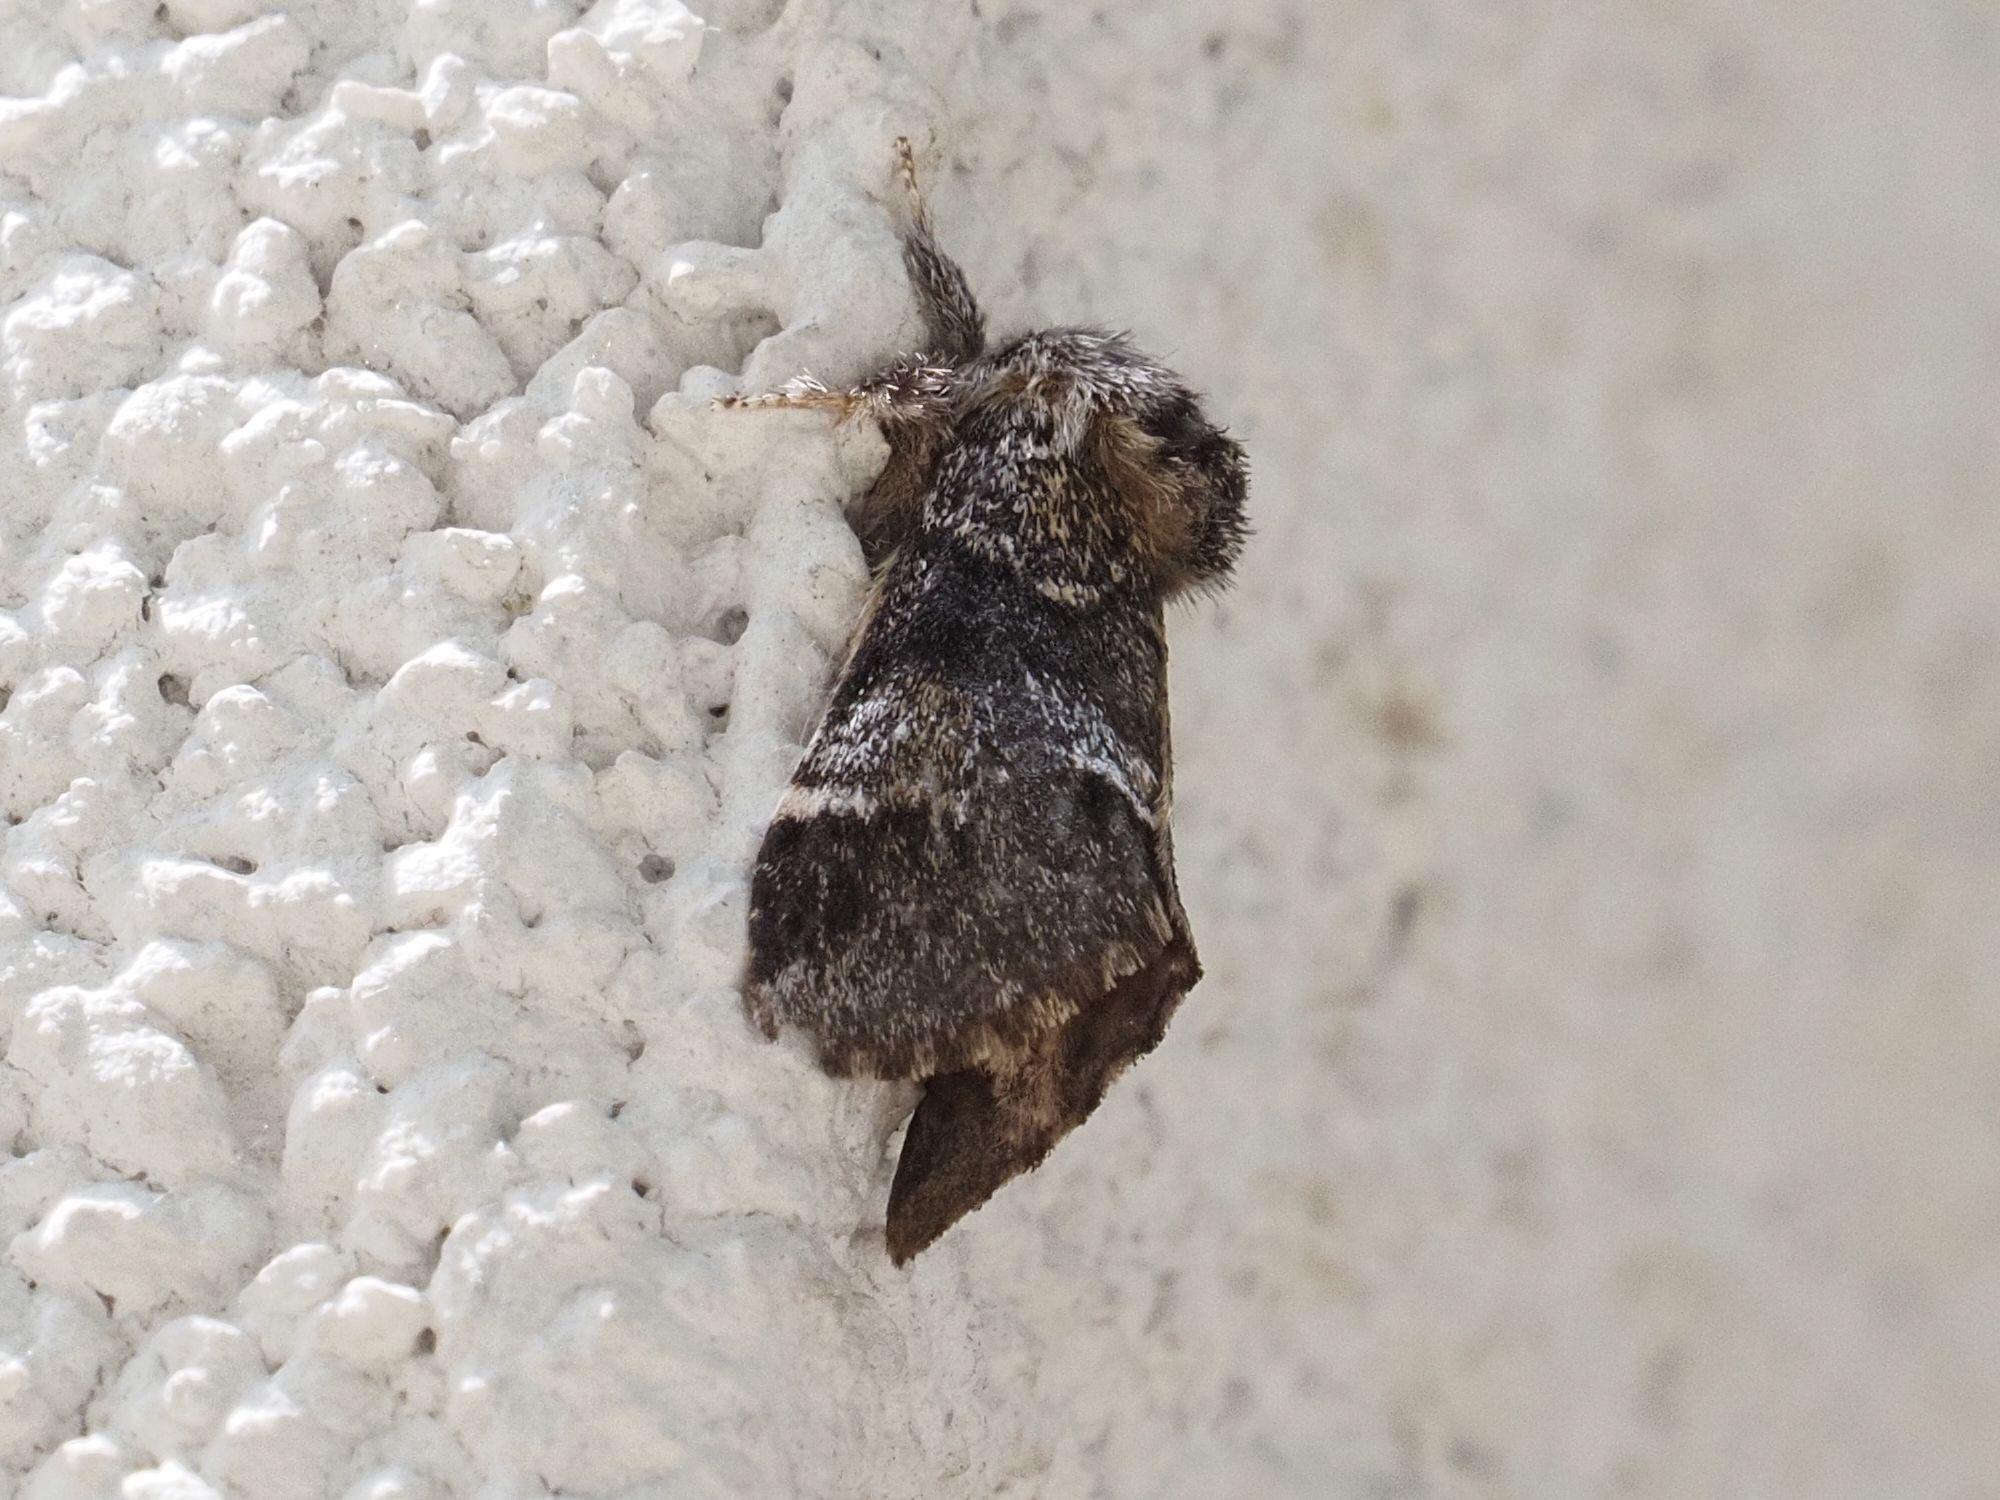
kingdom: Animalia
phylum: Arthropoda
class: Insecta
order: Lepidoptera
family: Notodontidae
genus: Drymonia
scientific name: Drymonia dodonaea
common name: Marbled brown
